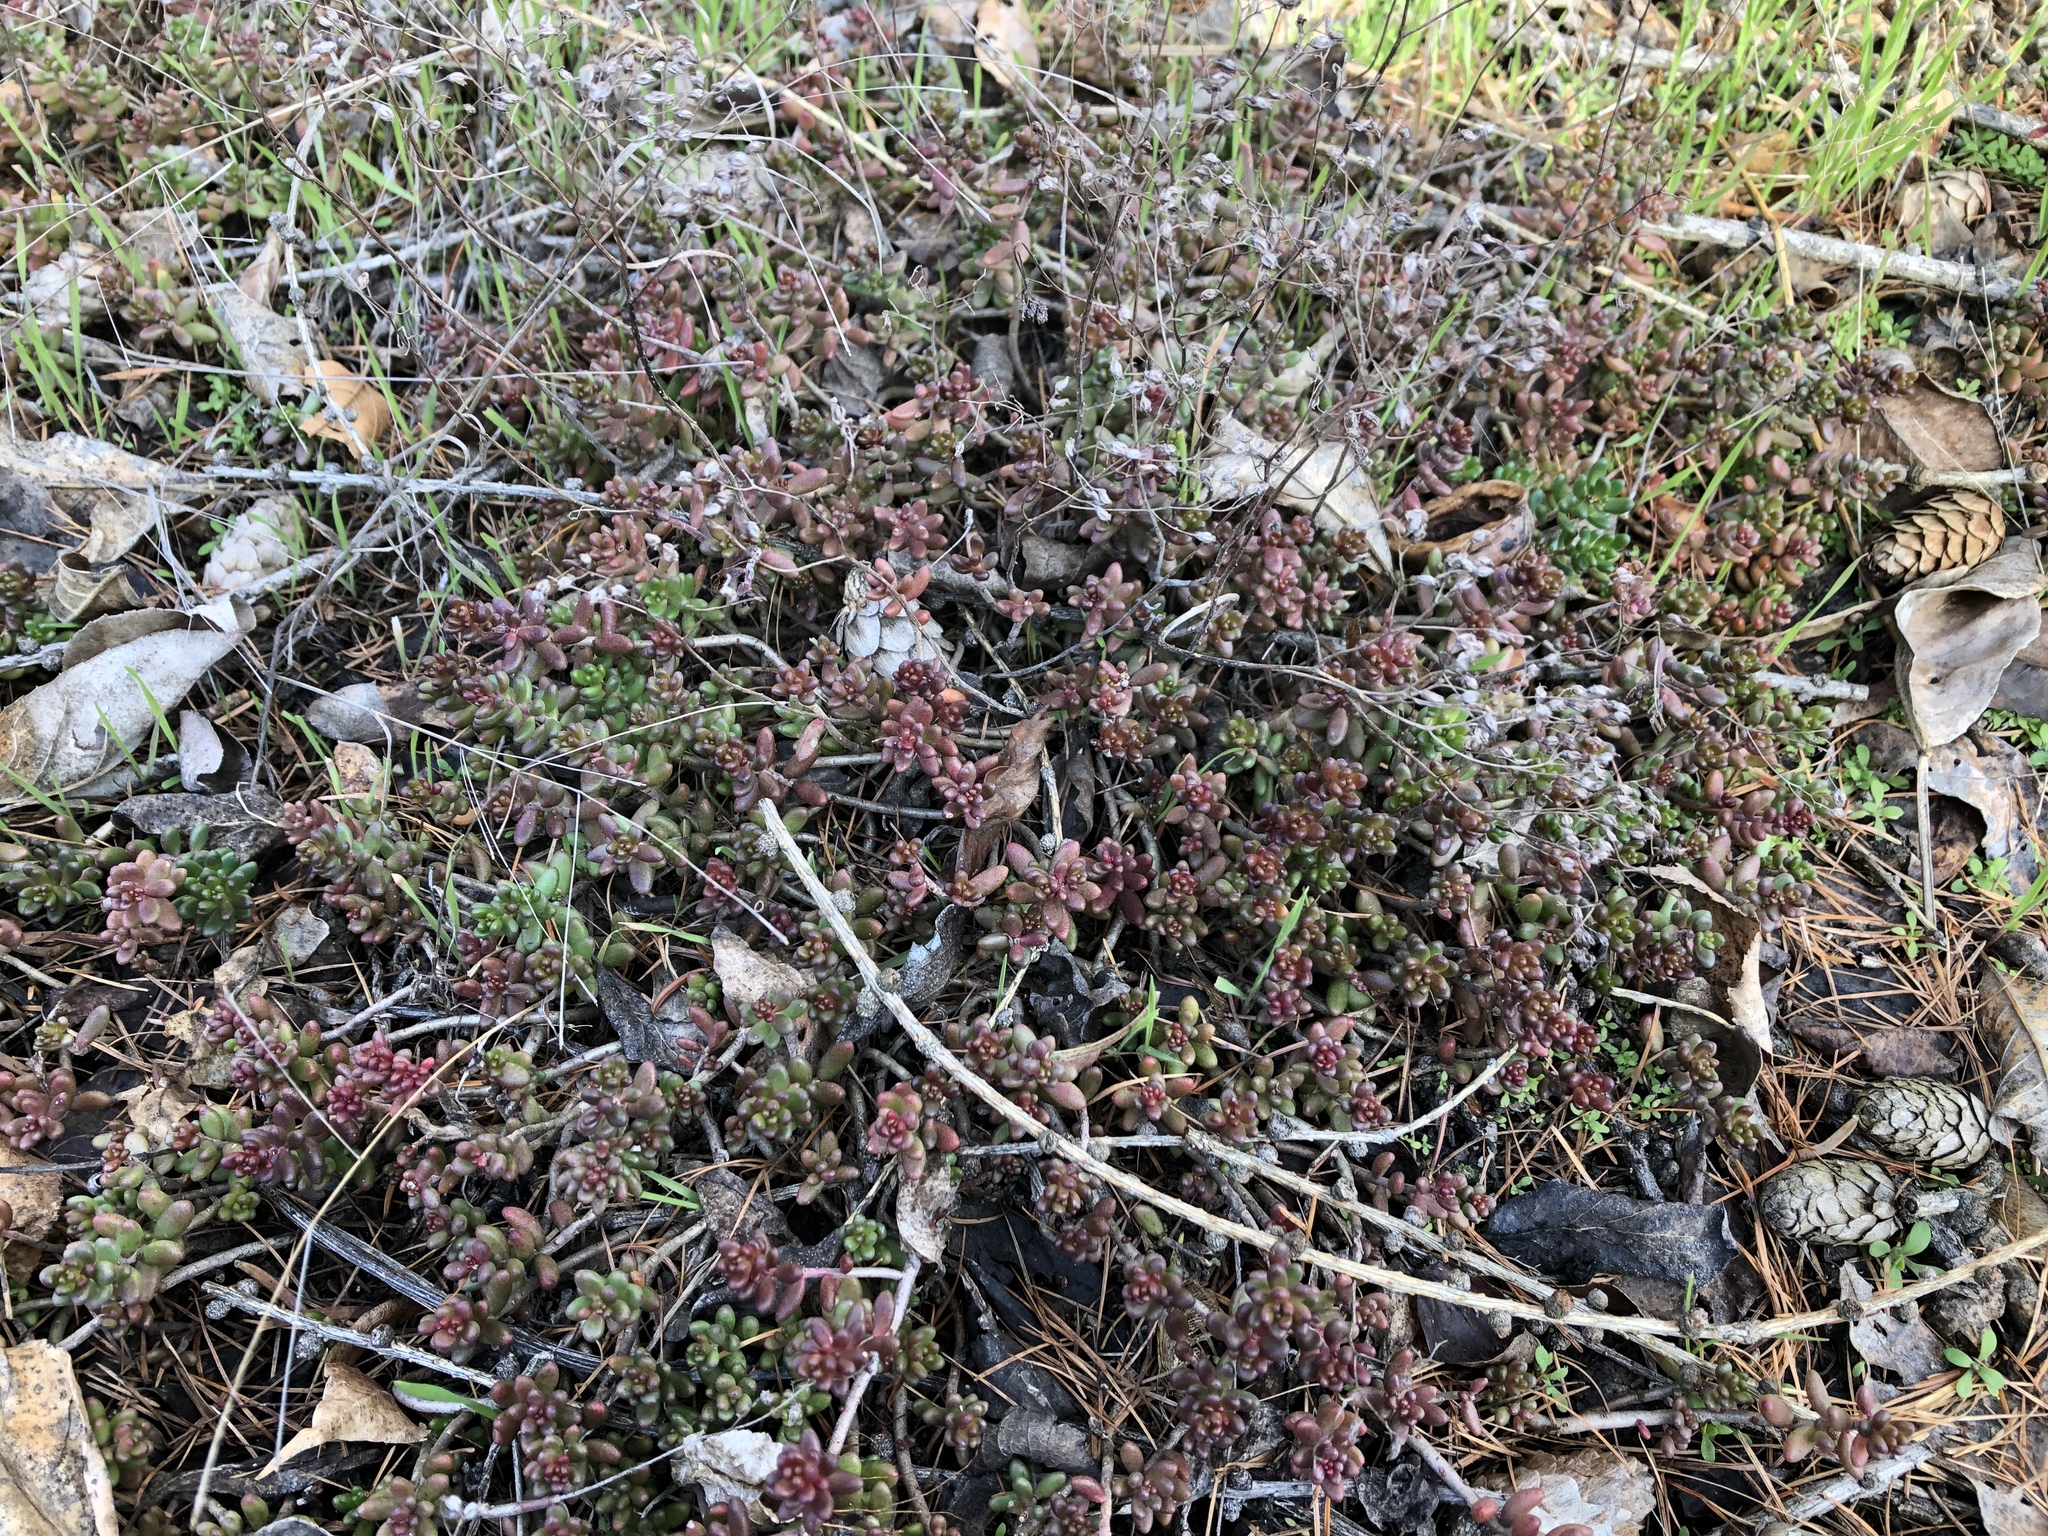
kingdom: Plantae
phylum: Tracheophyta
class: Magnoliopsida
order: Saxifragales
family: Crassulaceae
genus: Sedum
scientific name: Sedum album
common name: White stonecrop
